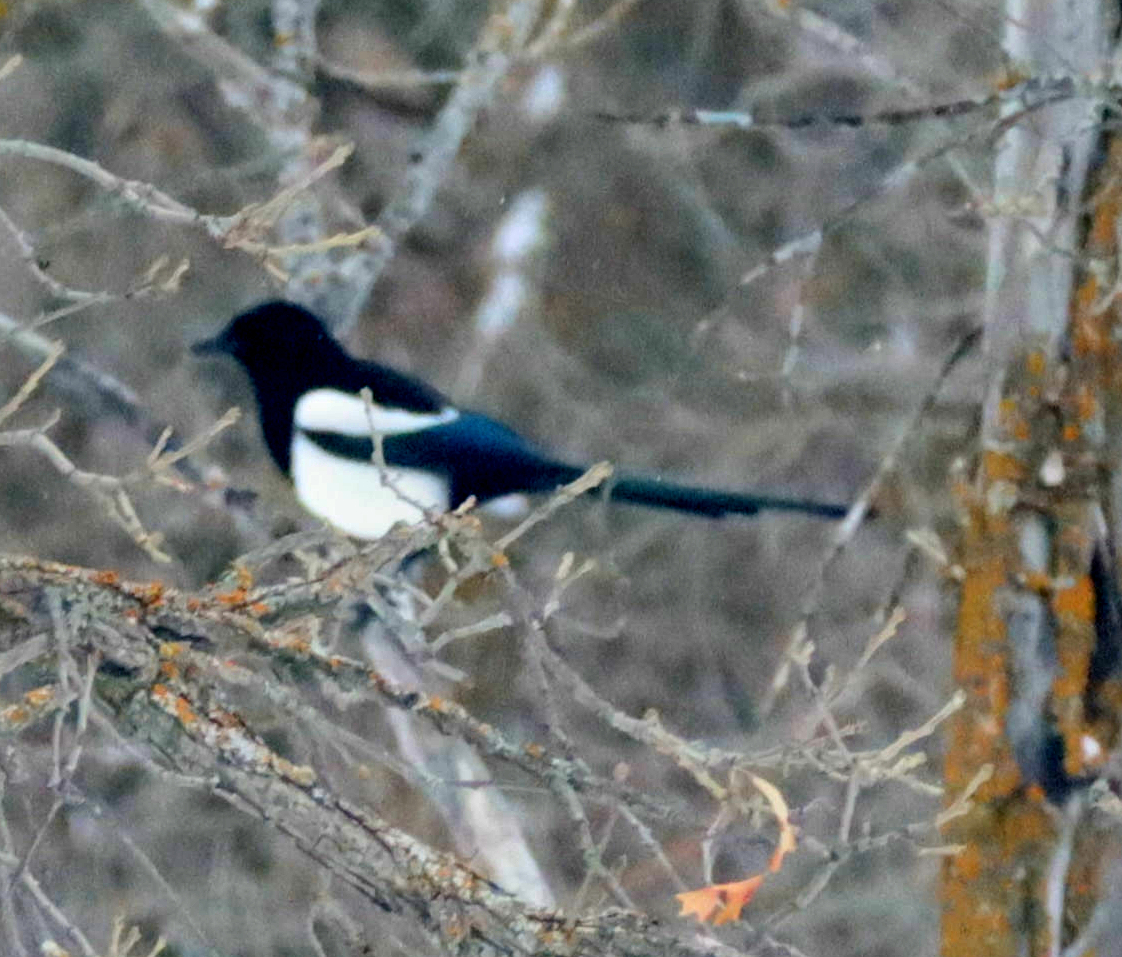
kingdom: Animalia
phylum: Chordata
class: Aves
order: Passeriformes
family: Corvidae
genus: Pica
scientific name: Pica hudsonia
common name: Black-billed magpie
